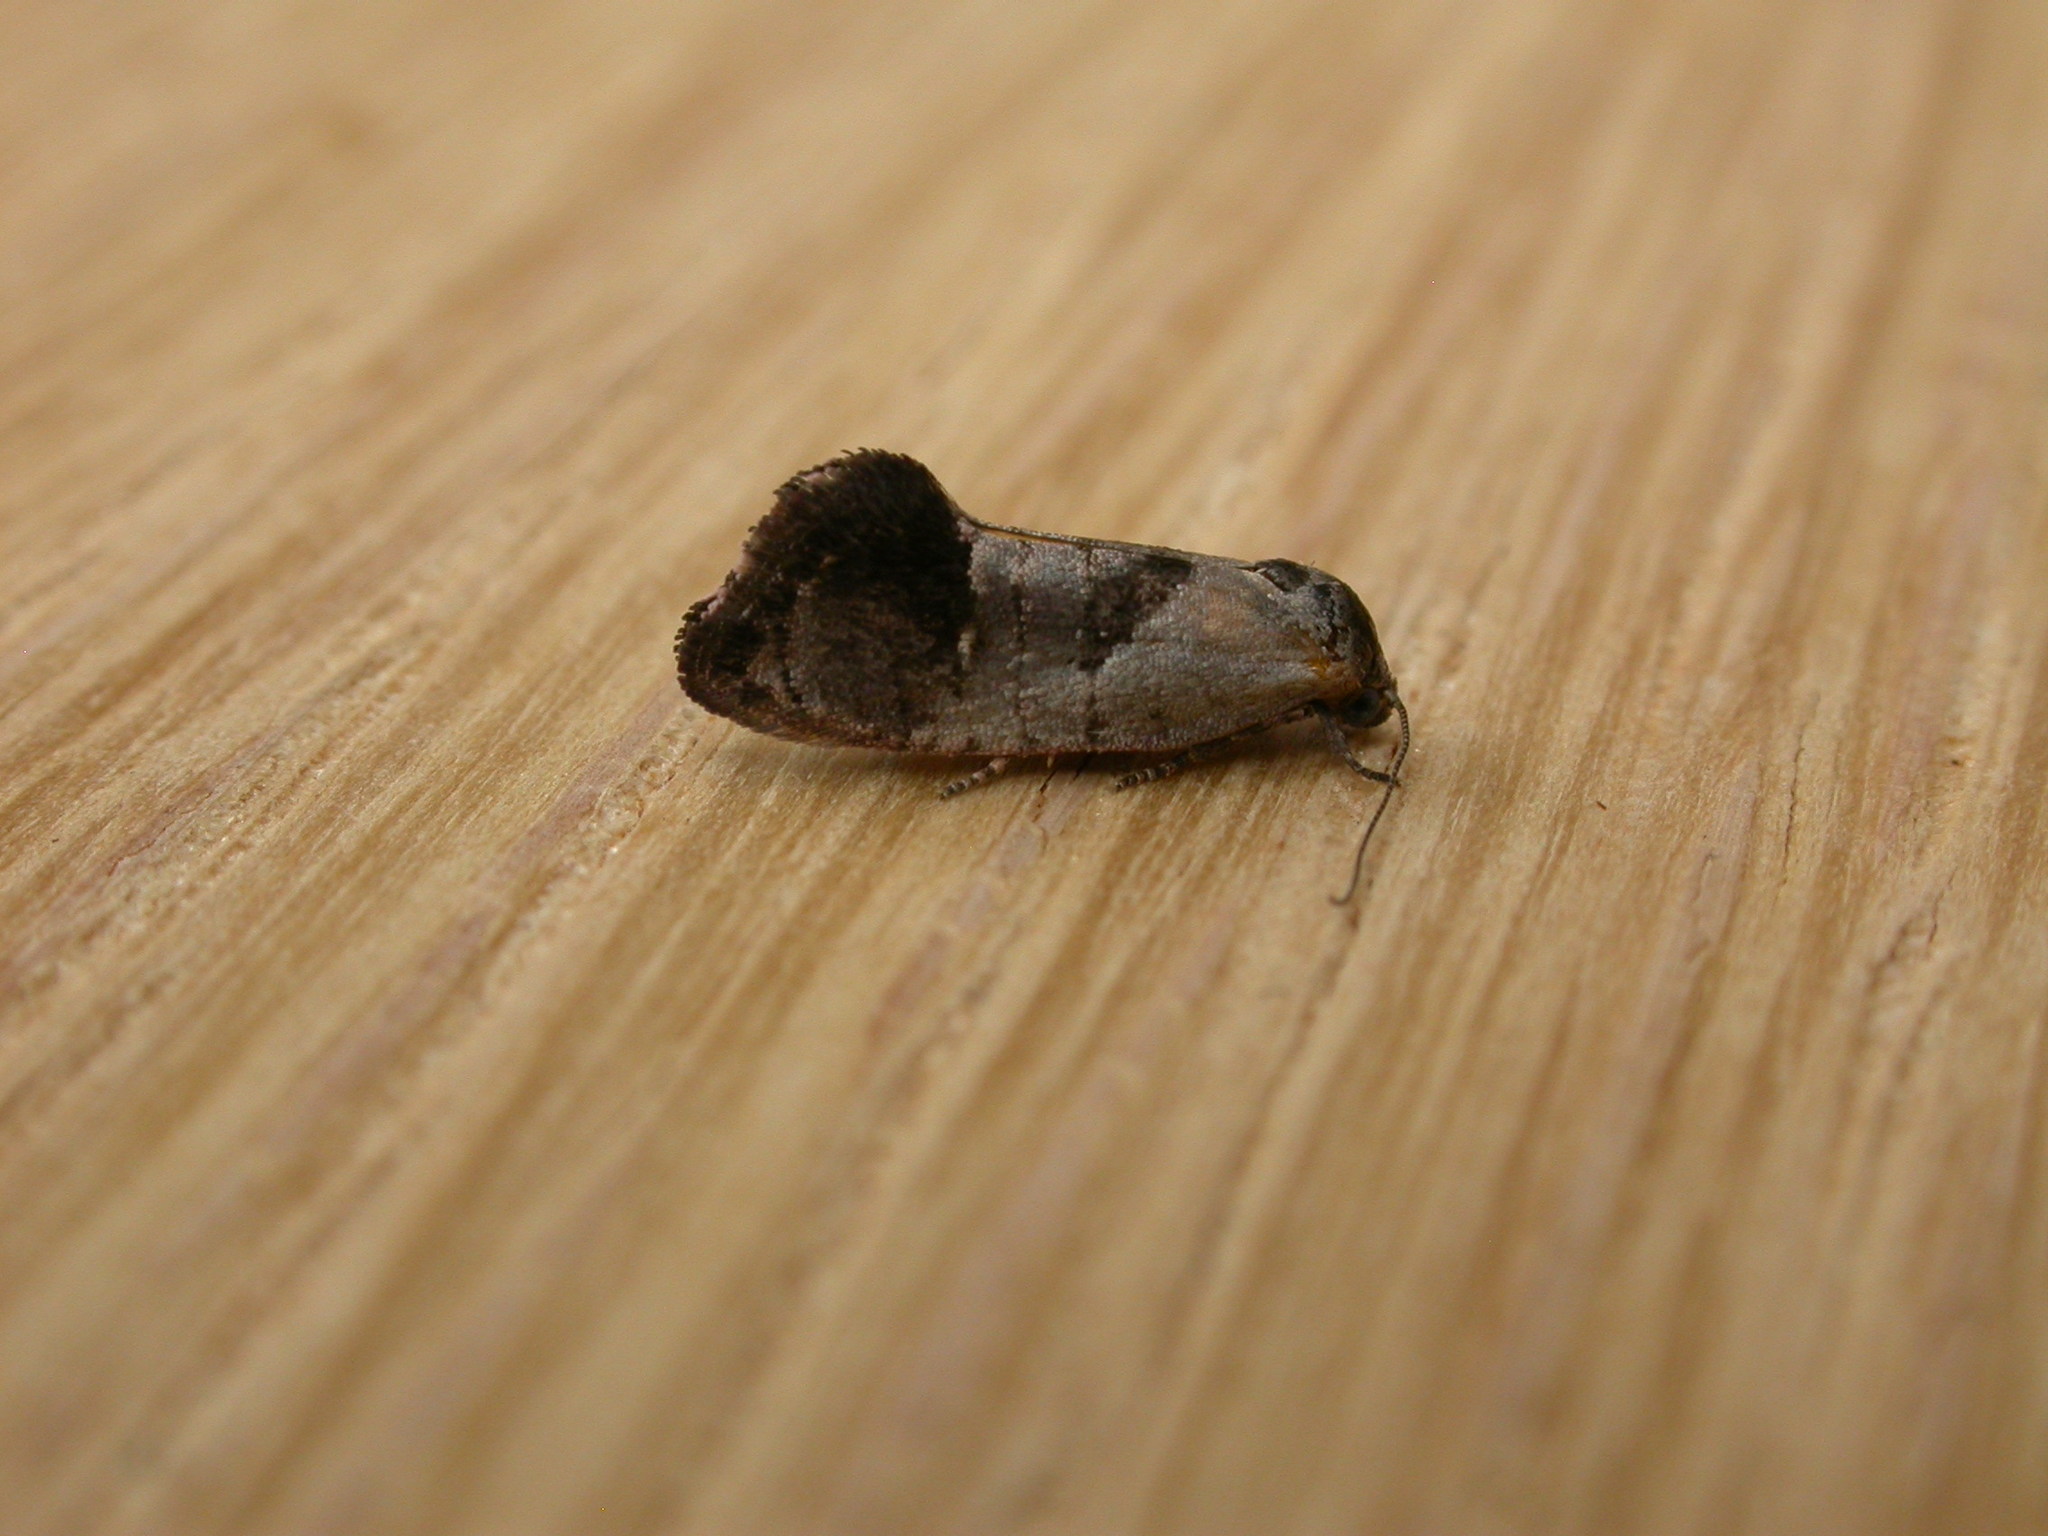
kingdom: Animalia
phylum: Arthropoda
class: Insecta
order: Lepidoptera
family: Depressariidae
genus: Eupselia
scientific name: Eupselia holoxantha
